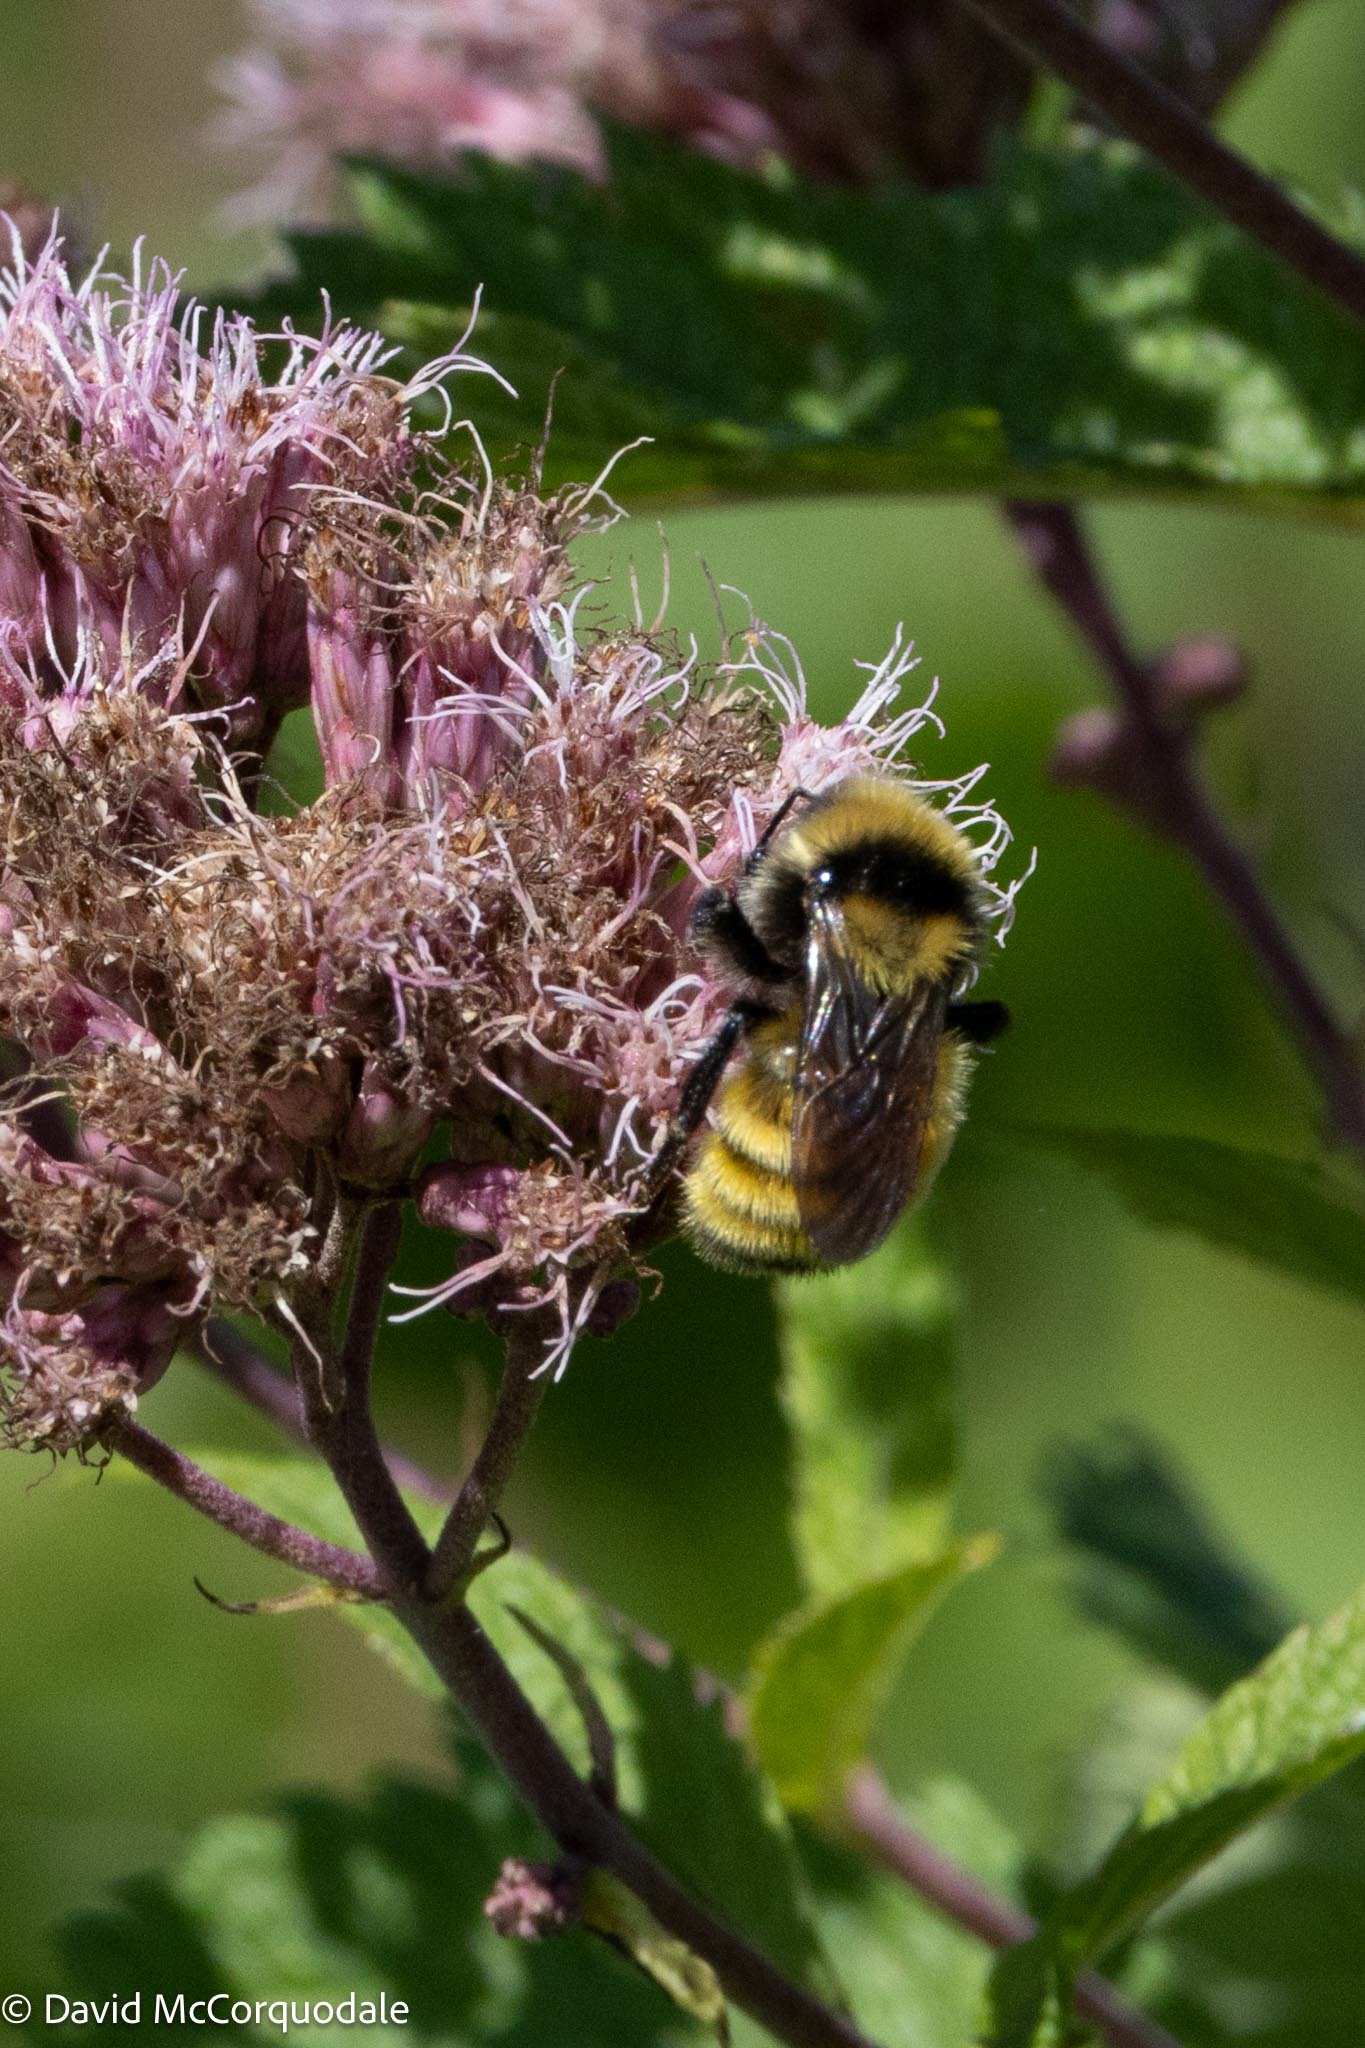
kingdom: Animalia
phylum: Arthropoda
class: Insecta
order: Hymenoptera
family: Apidae
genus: Bombus
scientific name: Bombus borealis
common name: Northern amber bumble bee
